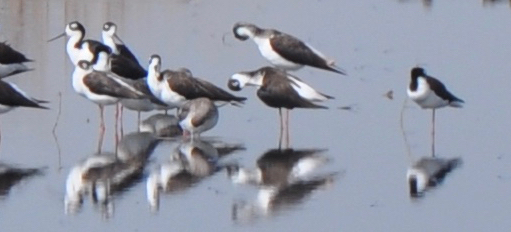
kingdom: Animalia
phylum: Chordata
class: Aves
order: Charadriiformes
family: Recurvirostridae
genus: Himantopus
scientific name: Himantopus mexicanus
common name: Black-necked stilt
